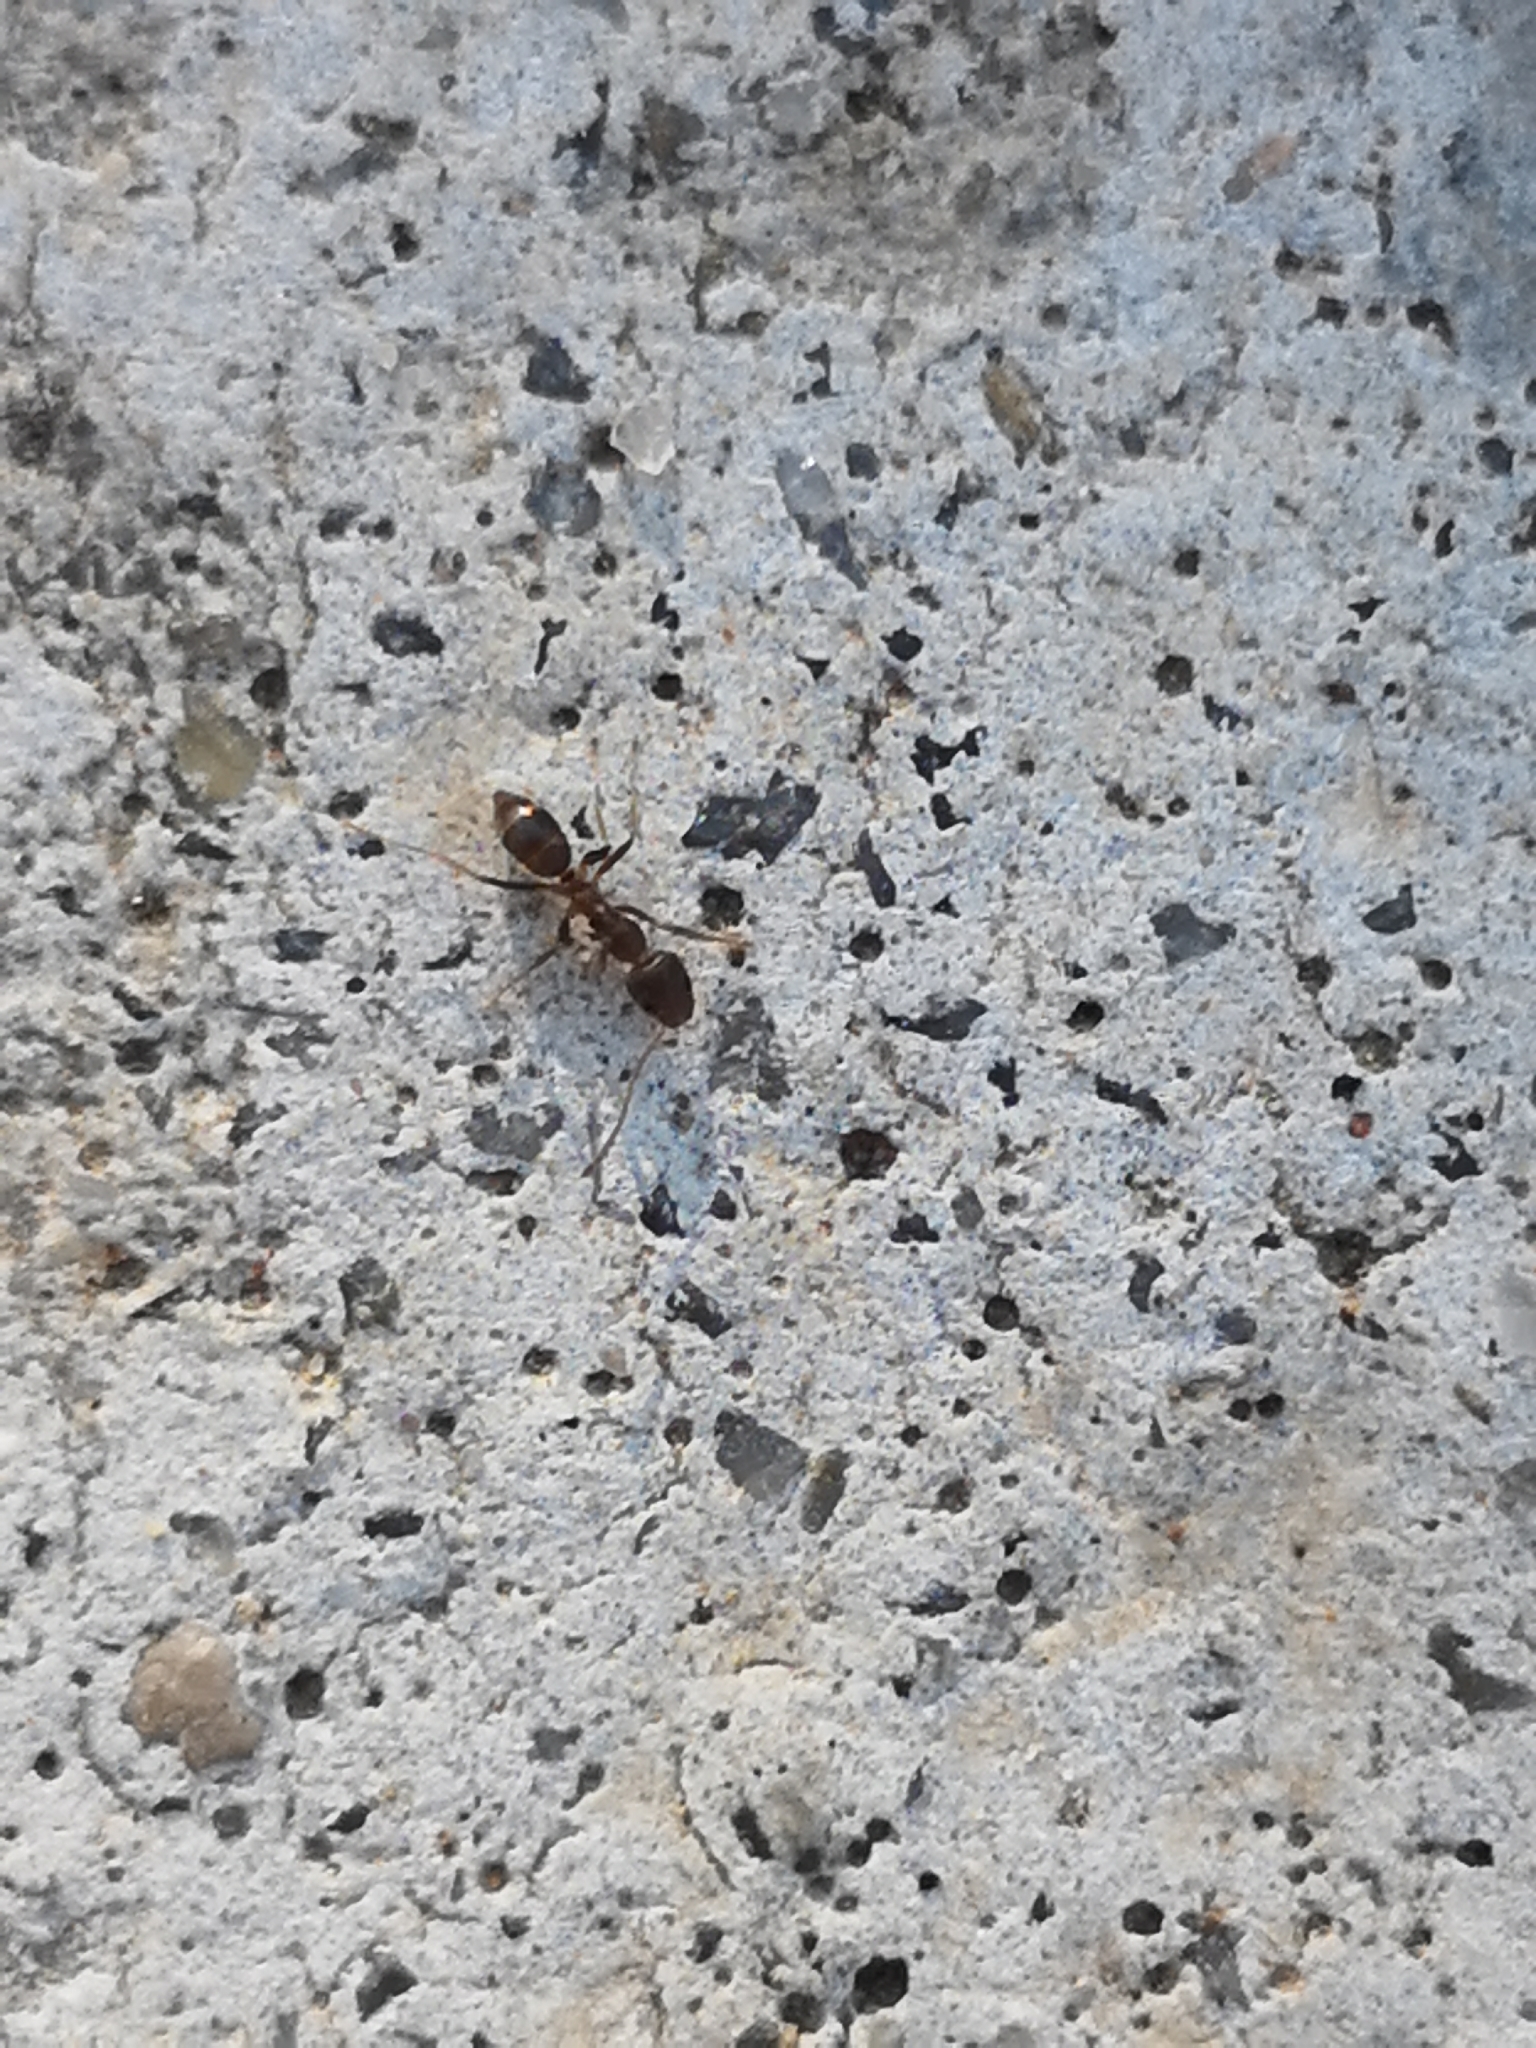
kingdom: Animalia
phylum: Arthropoda
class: Insecta
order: Hymenoptera
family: Formicidae
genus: Linepithema
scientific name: Linepithema humile
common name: Argentine ant
